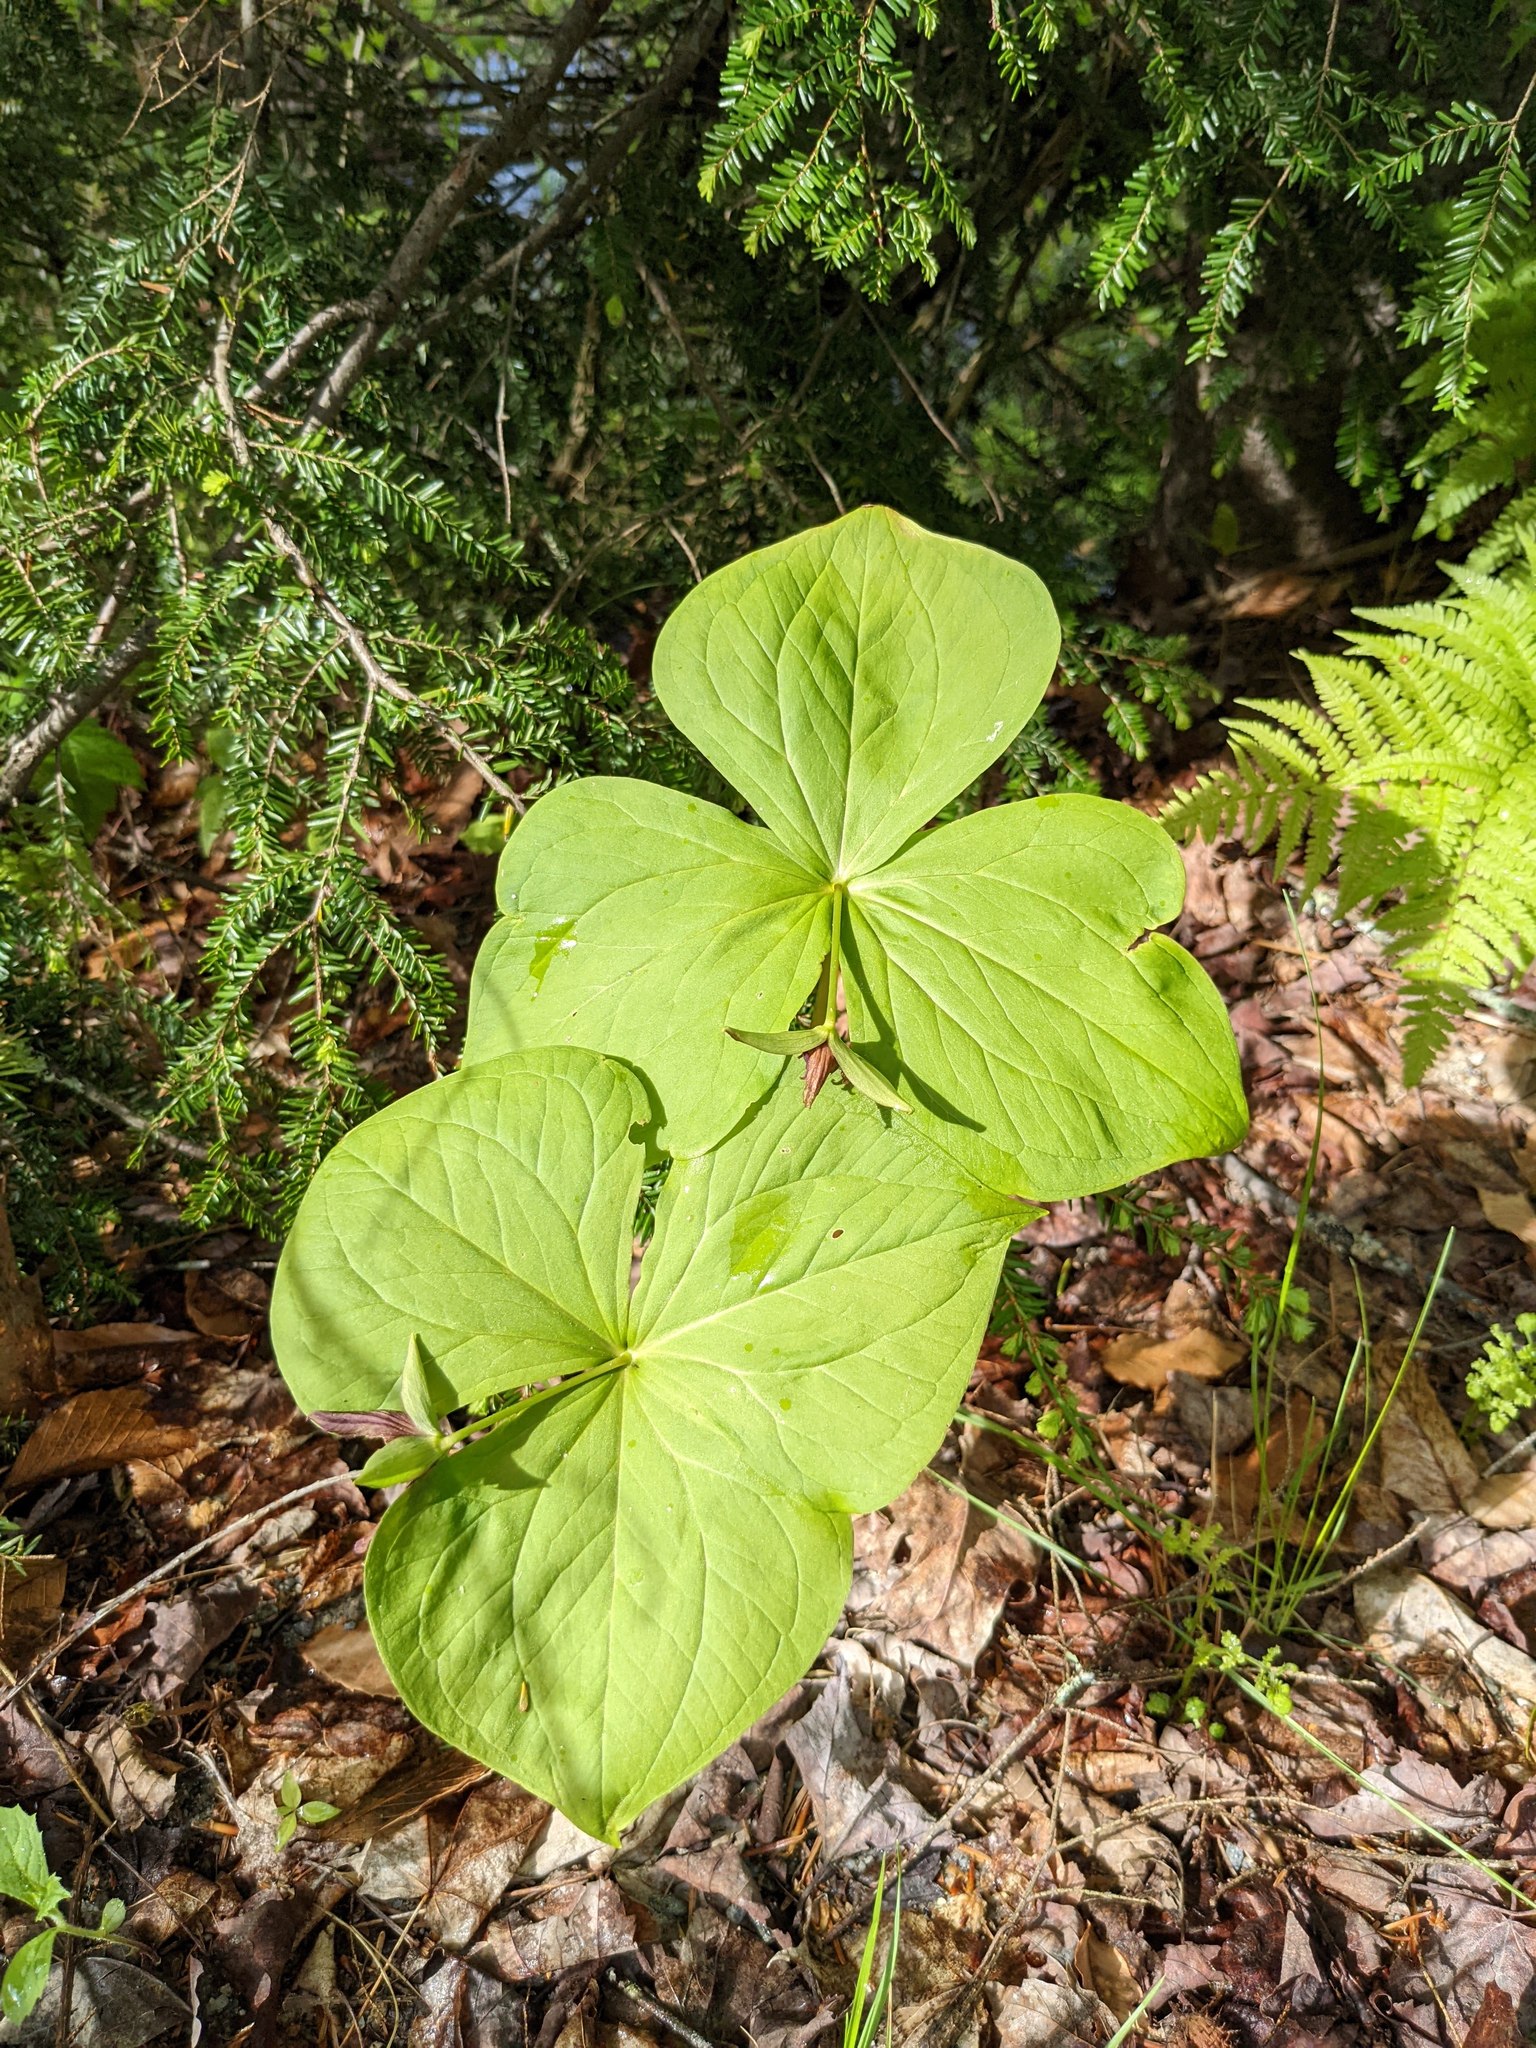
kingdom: Plantae
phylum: Tracheophyta
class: Liliopsida
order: Liliales
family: Melanthiaceae
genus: Trillium
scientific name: Trillium erectum
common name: Purple trillium
